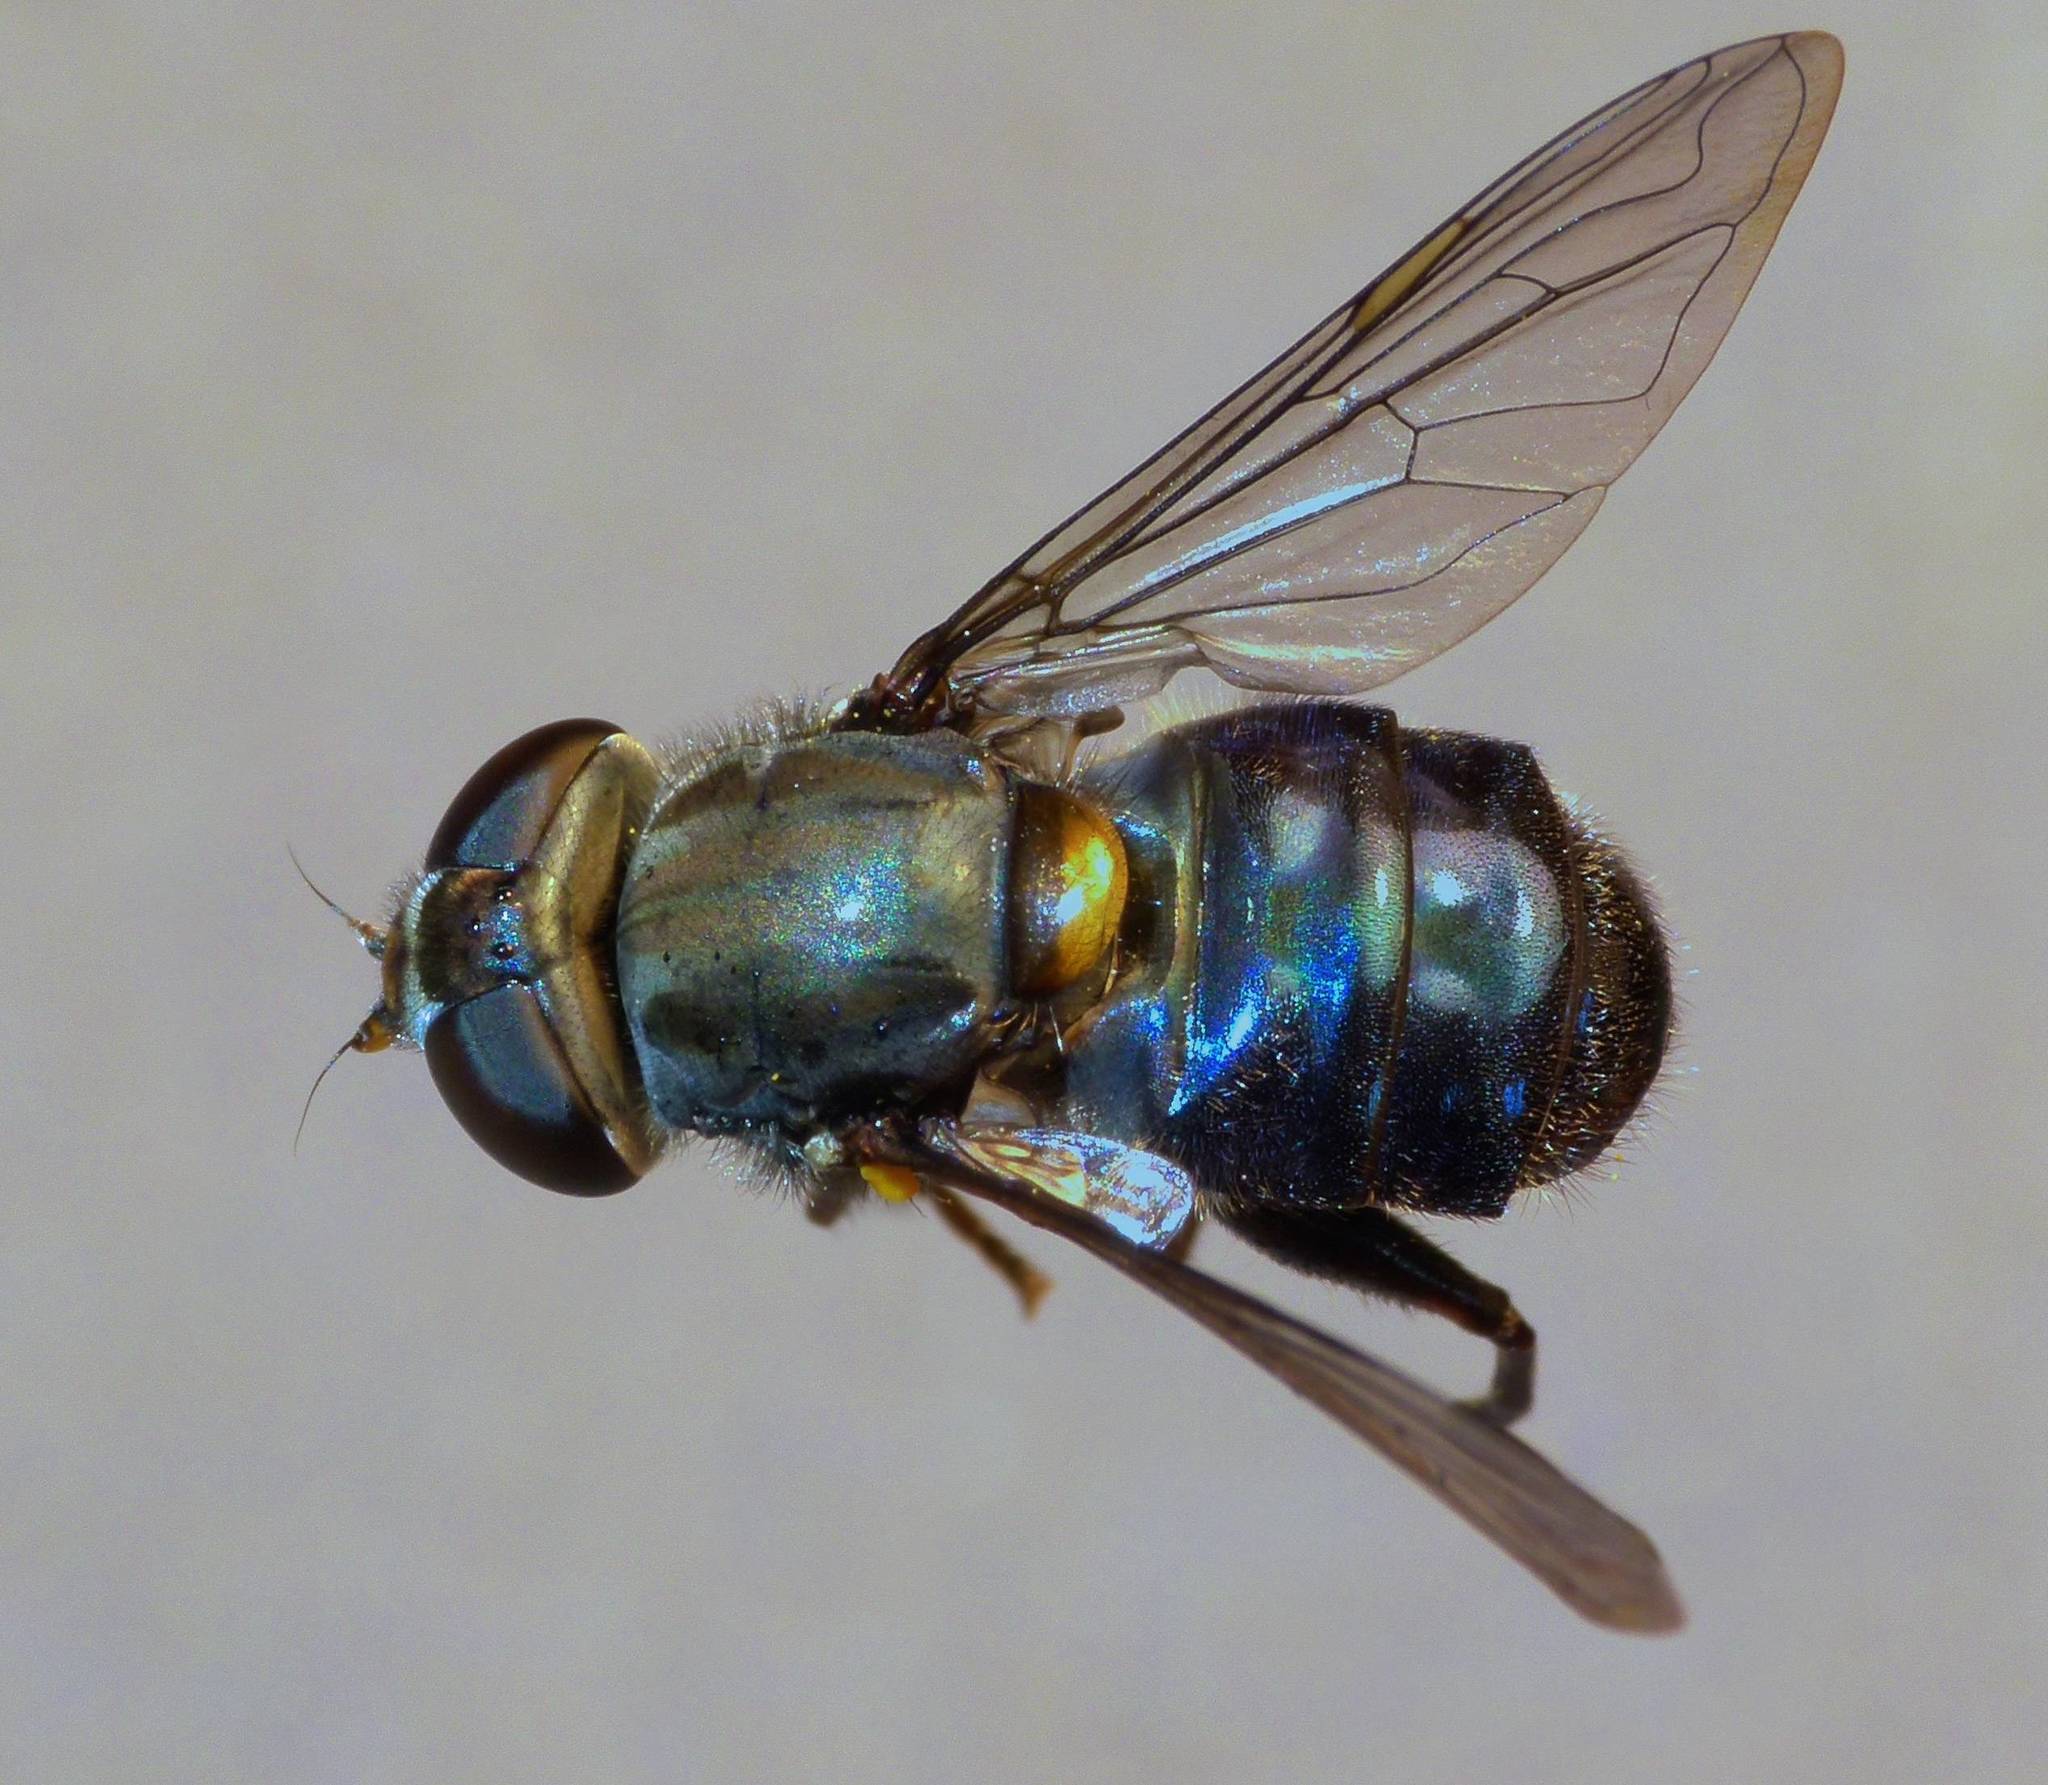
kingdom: Animalia
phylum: Arthropoda
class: Insecta
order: Diptera
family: Syrphidae
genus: Helophilus
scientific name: Helophilus hochstetteri
